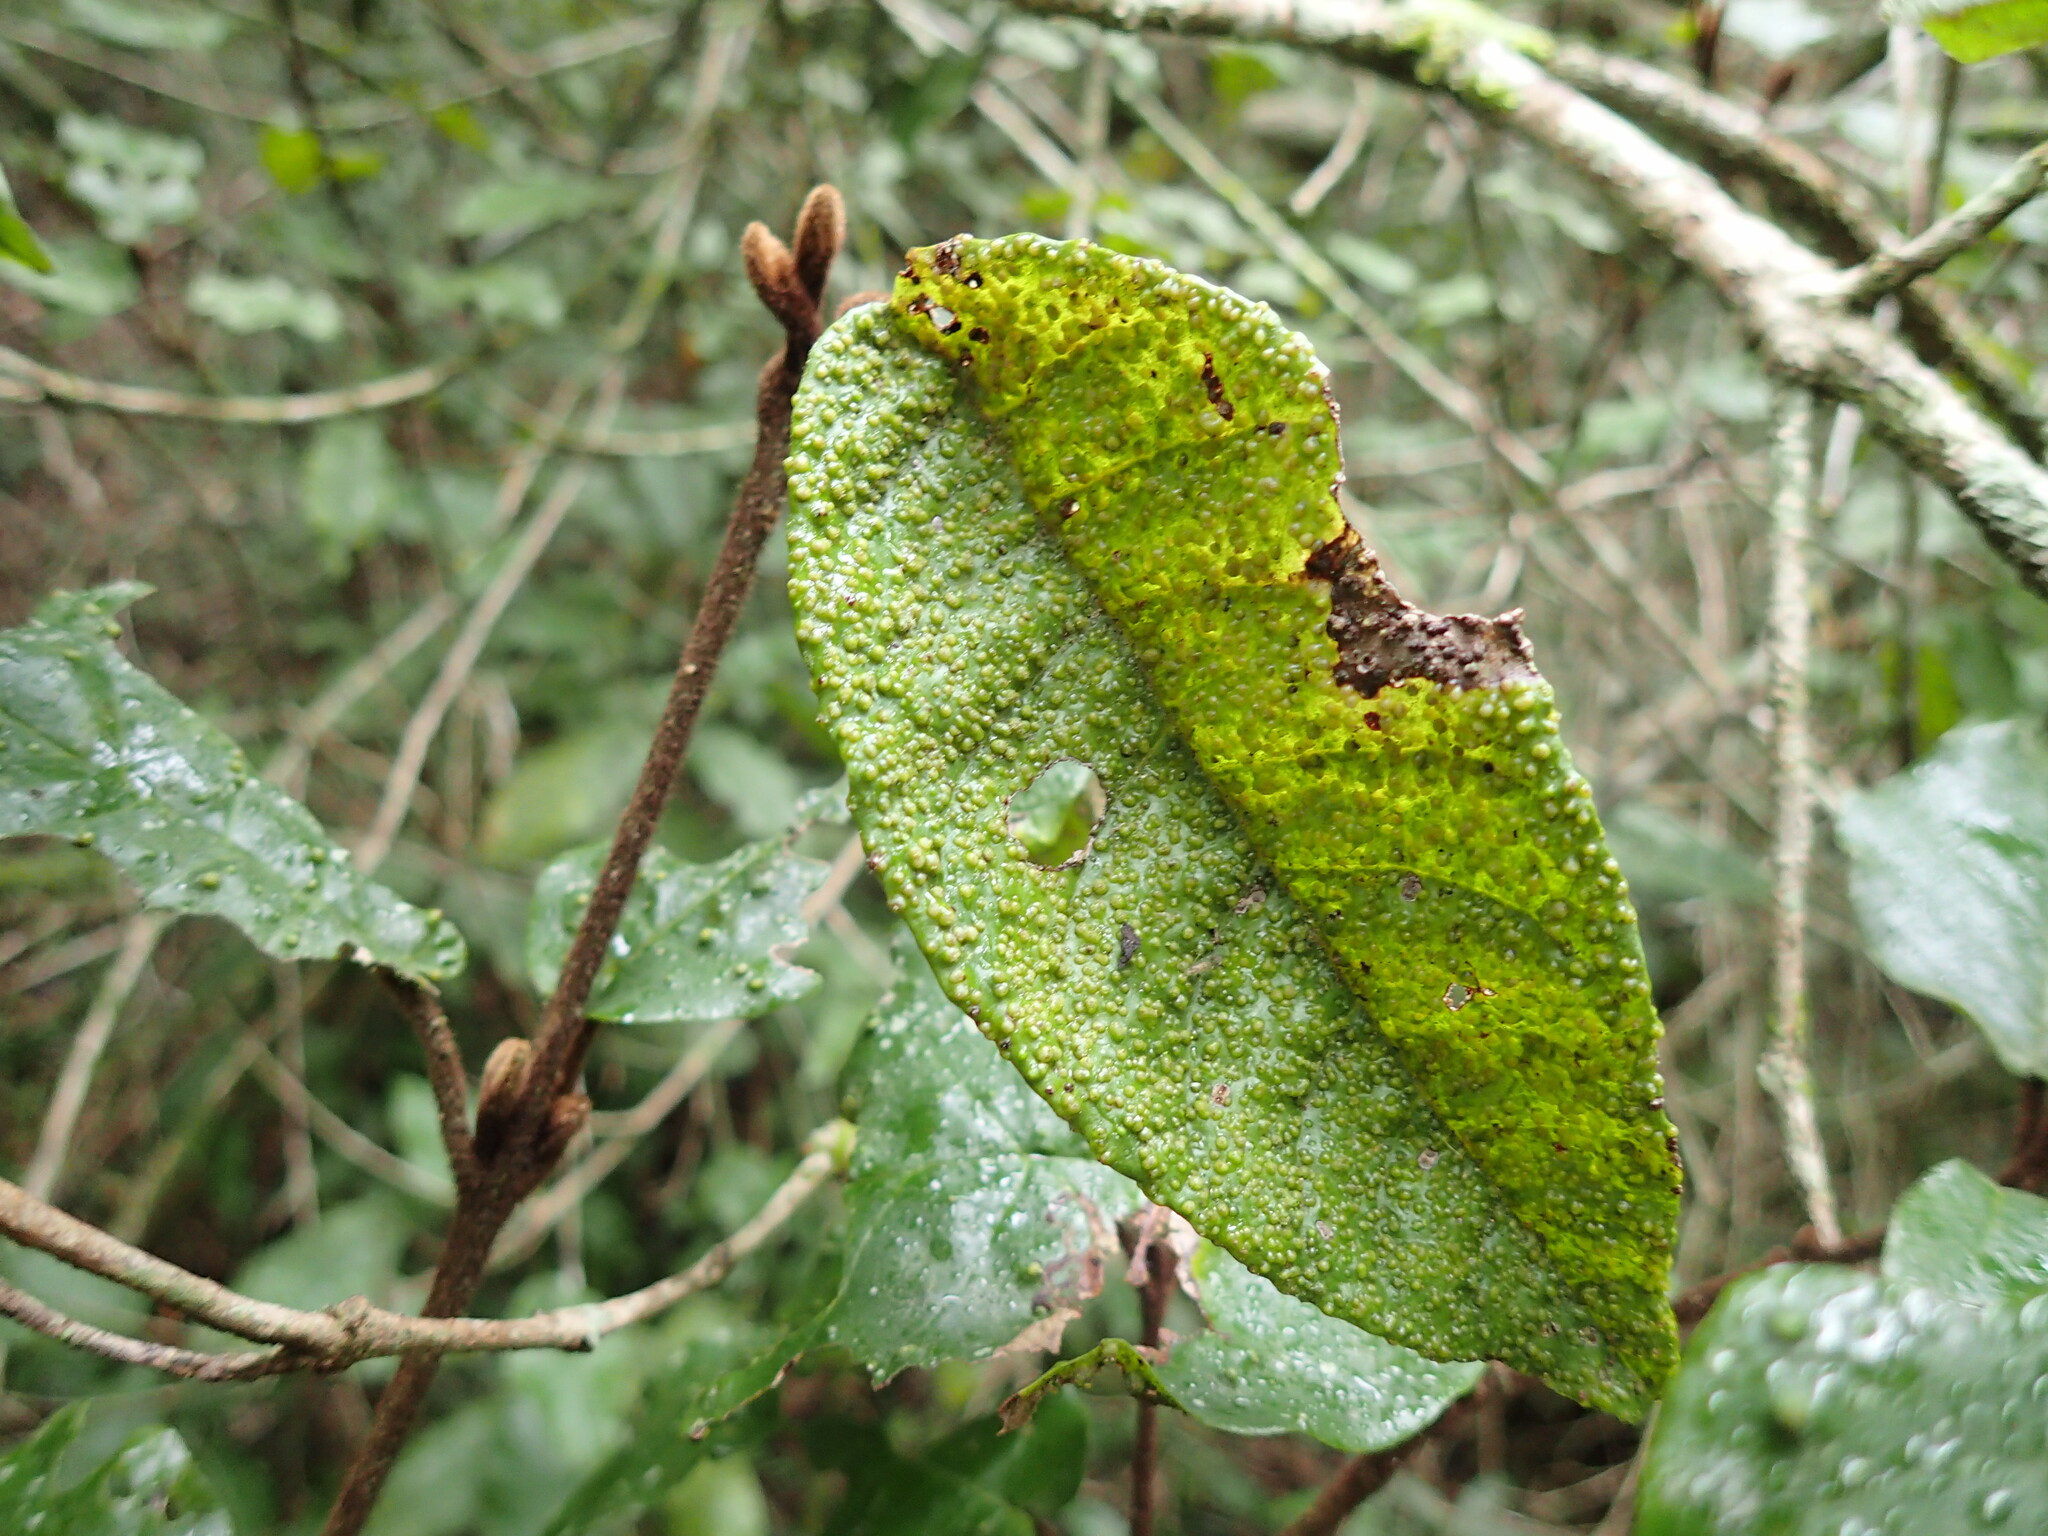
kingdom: Animalia
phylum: Arthropoda
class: Arachnida
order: Trombidiformes
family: Phytoptidae
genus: Phytoptus
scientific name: Phytoptus
